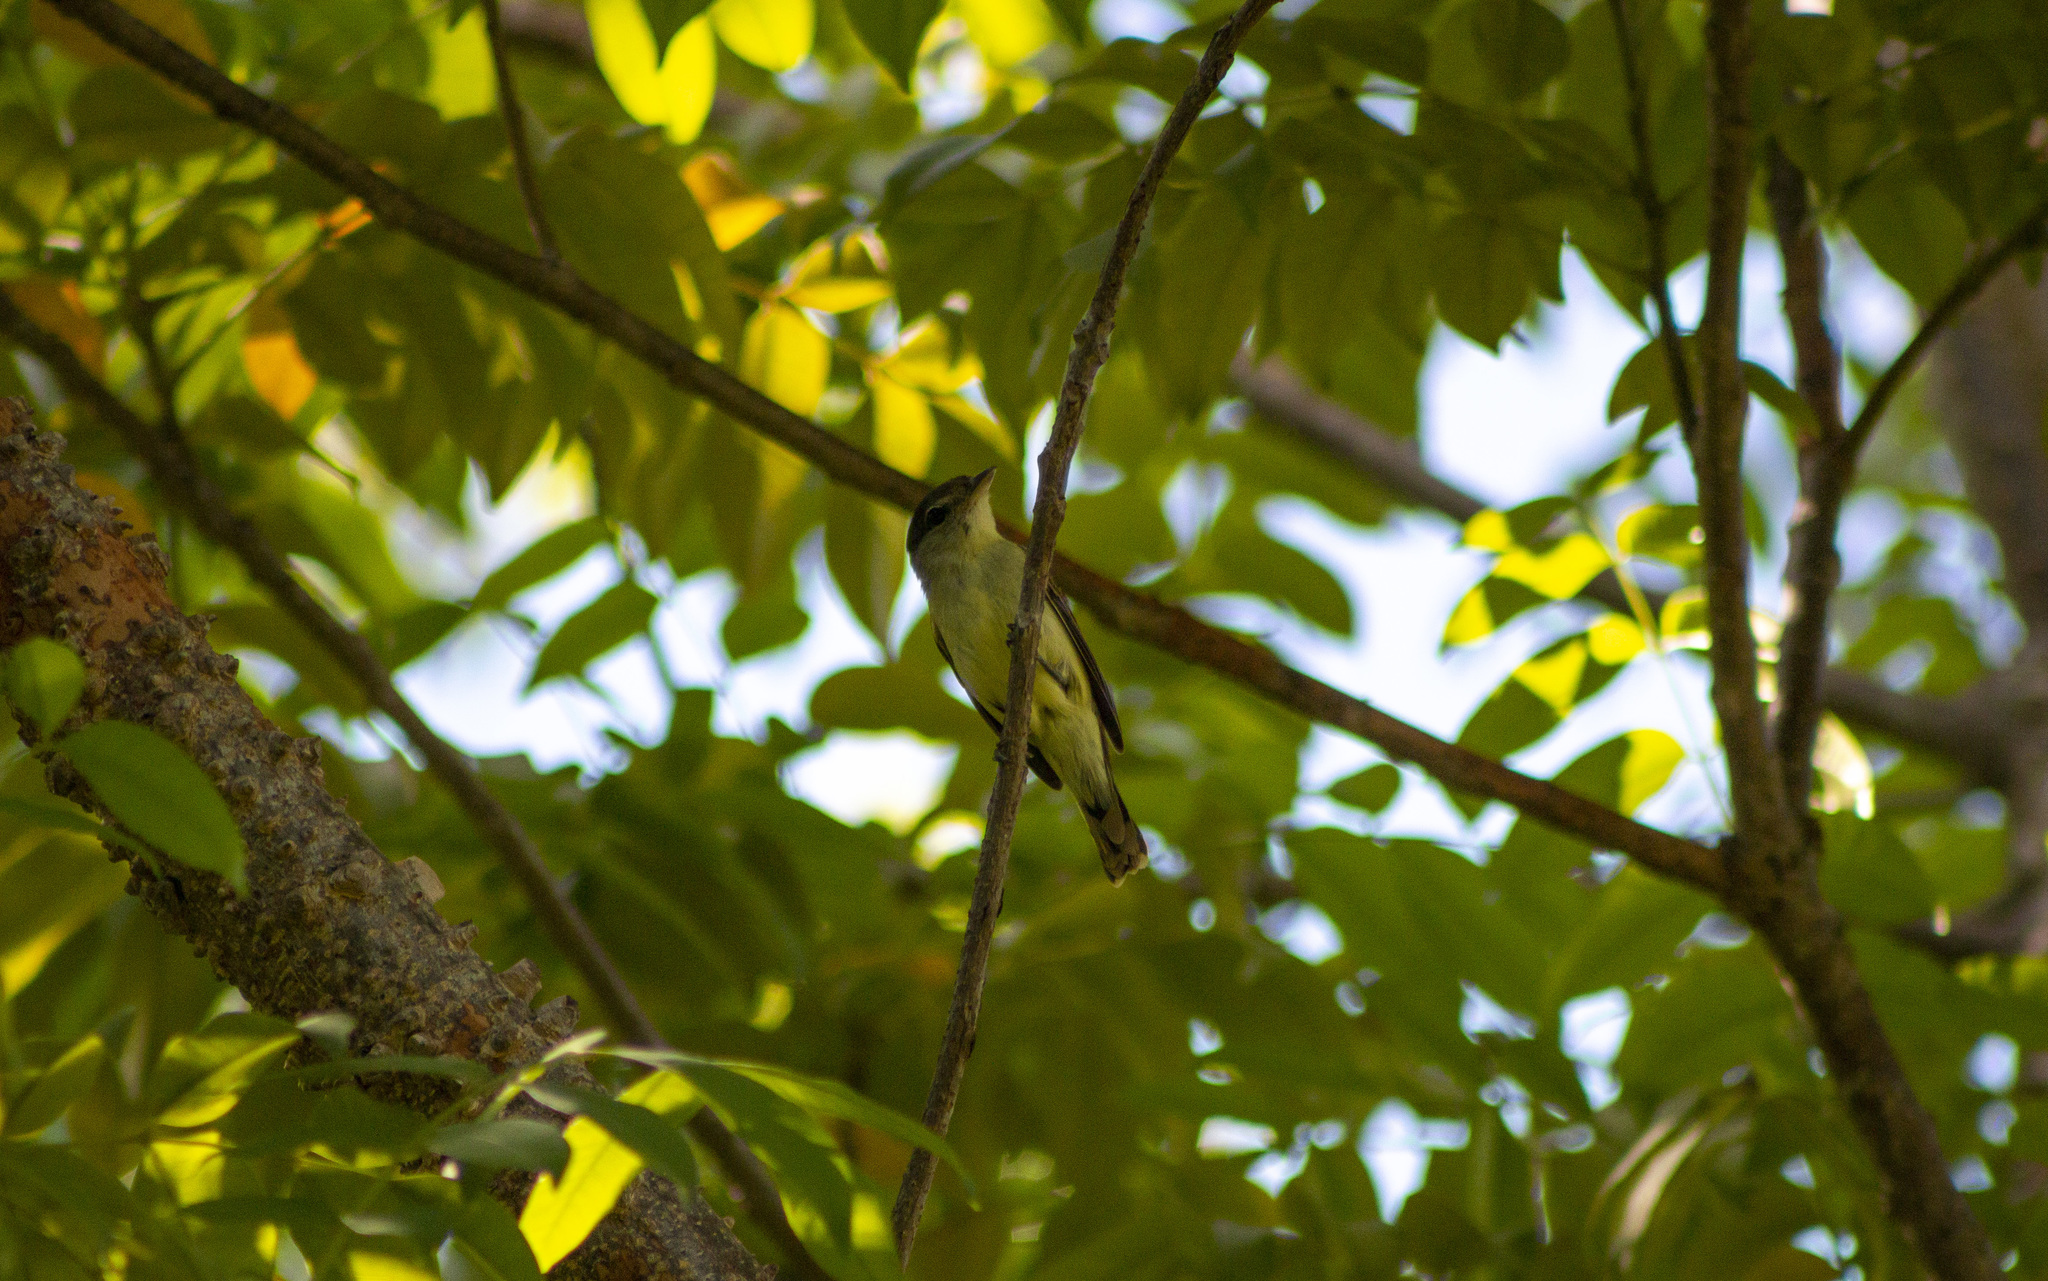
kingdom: Animalia
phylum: Chordata
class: Aves
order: Passeriformes
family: Cotingidae
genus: Pachyramphus
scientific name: Pachyramphus polychopterus
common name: White-winged becard
